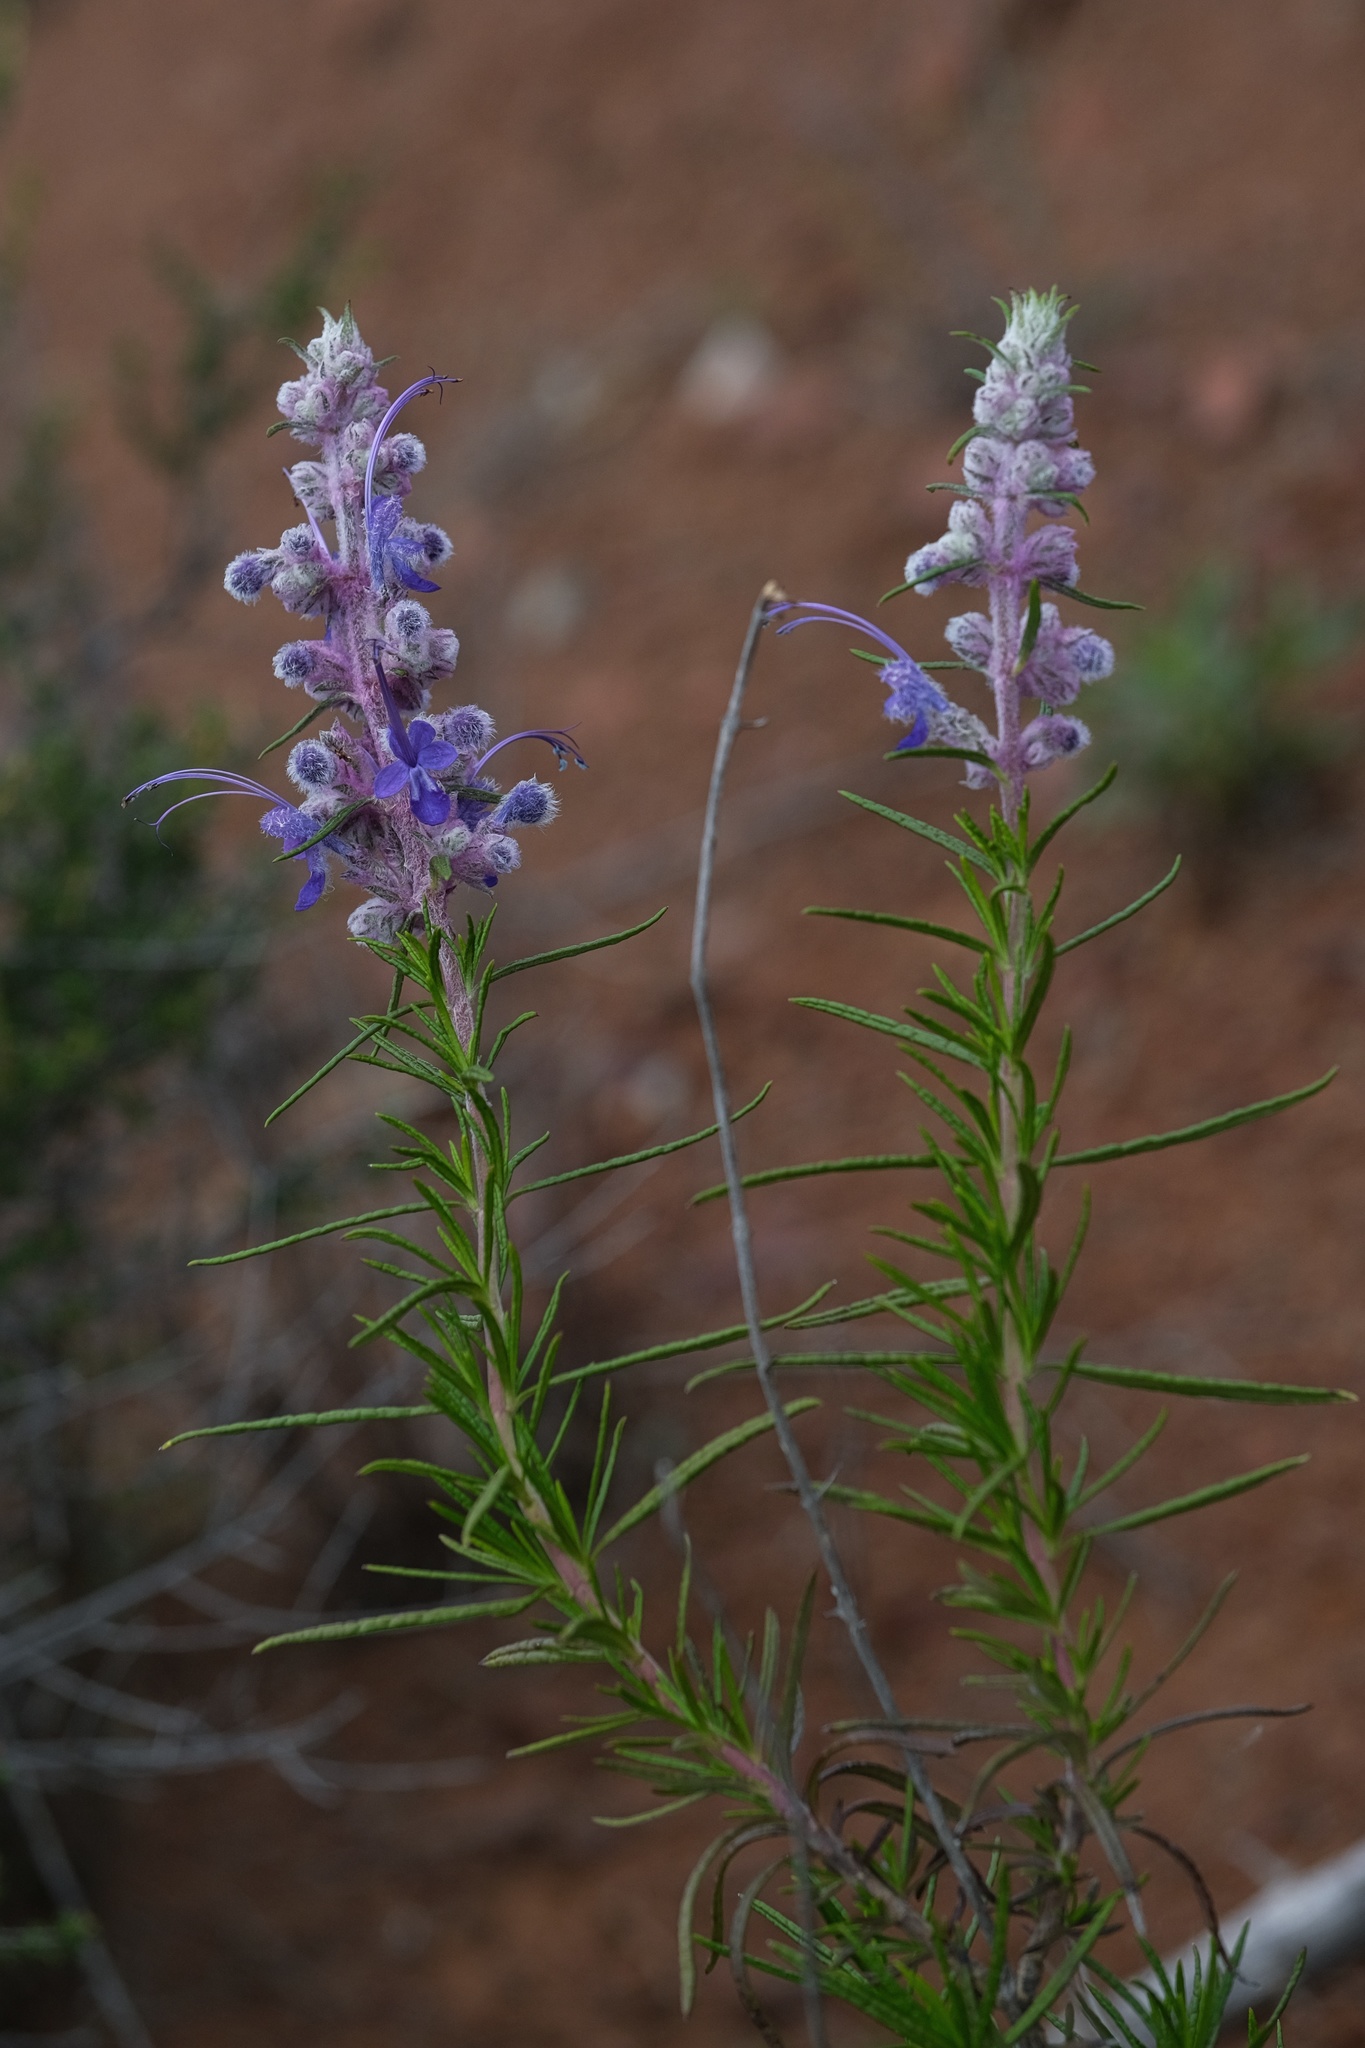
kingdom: Plantae
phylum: Tracheophyta
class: Magnoliopsida
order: Lamiales
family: Lamiaceae
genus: Trichostema
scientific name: Trichostema lanatum
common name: Woolly bluecurls
